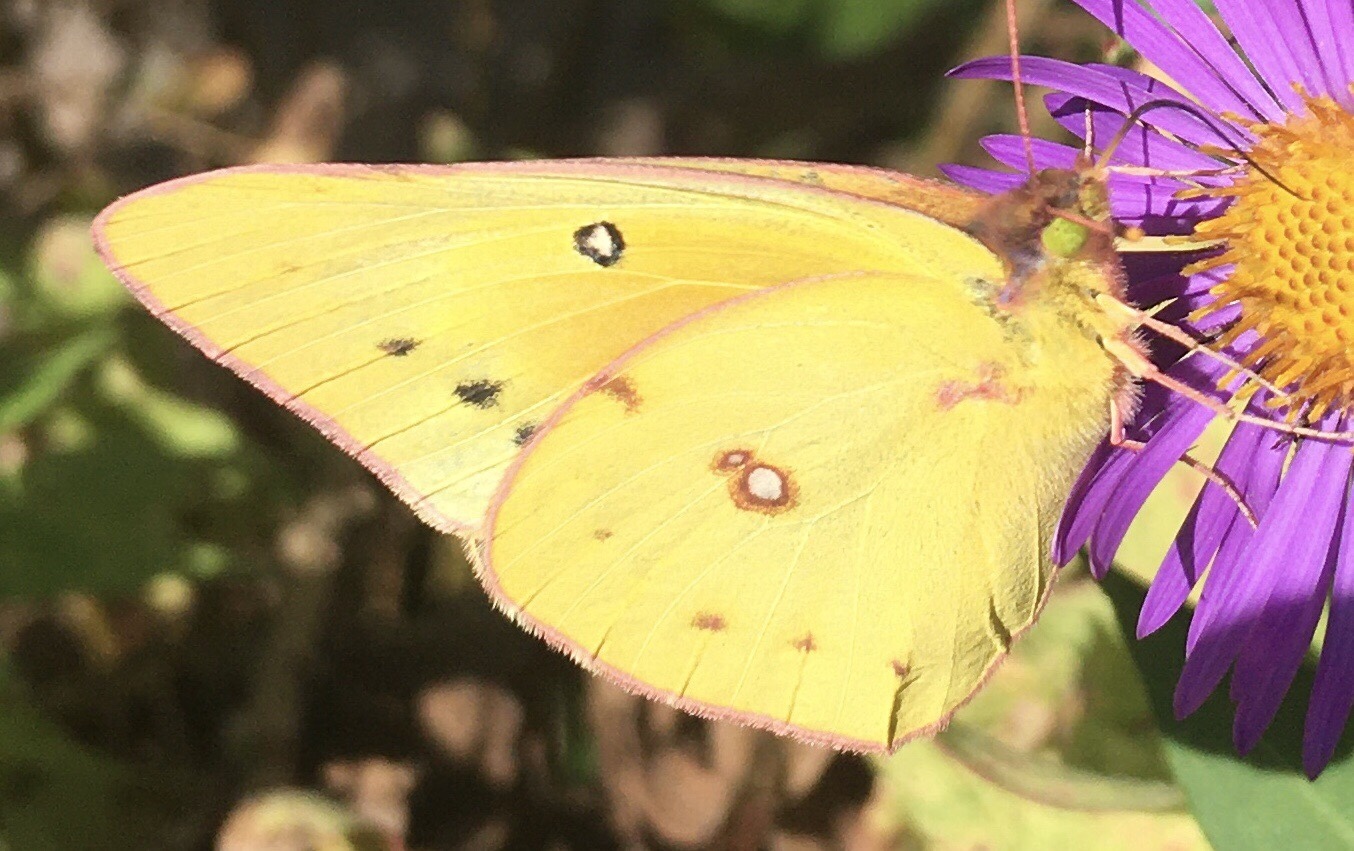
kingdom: Animalia
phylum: Arthropoda
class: Insecta
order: Lepidoptera
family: Pieridae
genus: Colias
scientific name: Colias eurytheme
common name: Alfalfa butterfly
